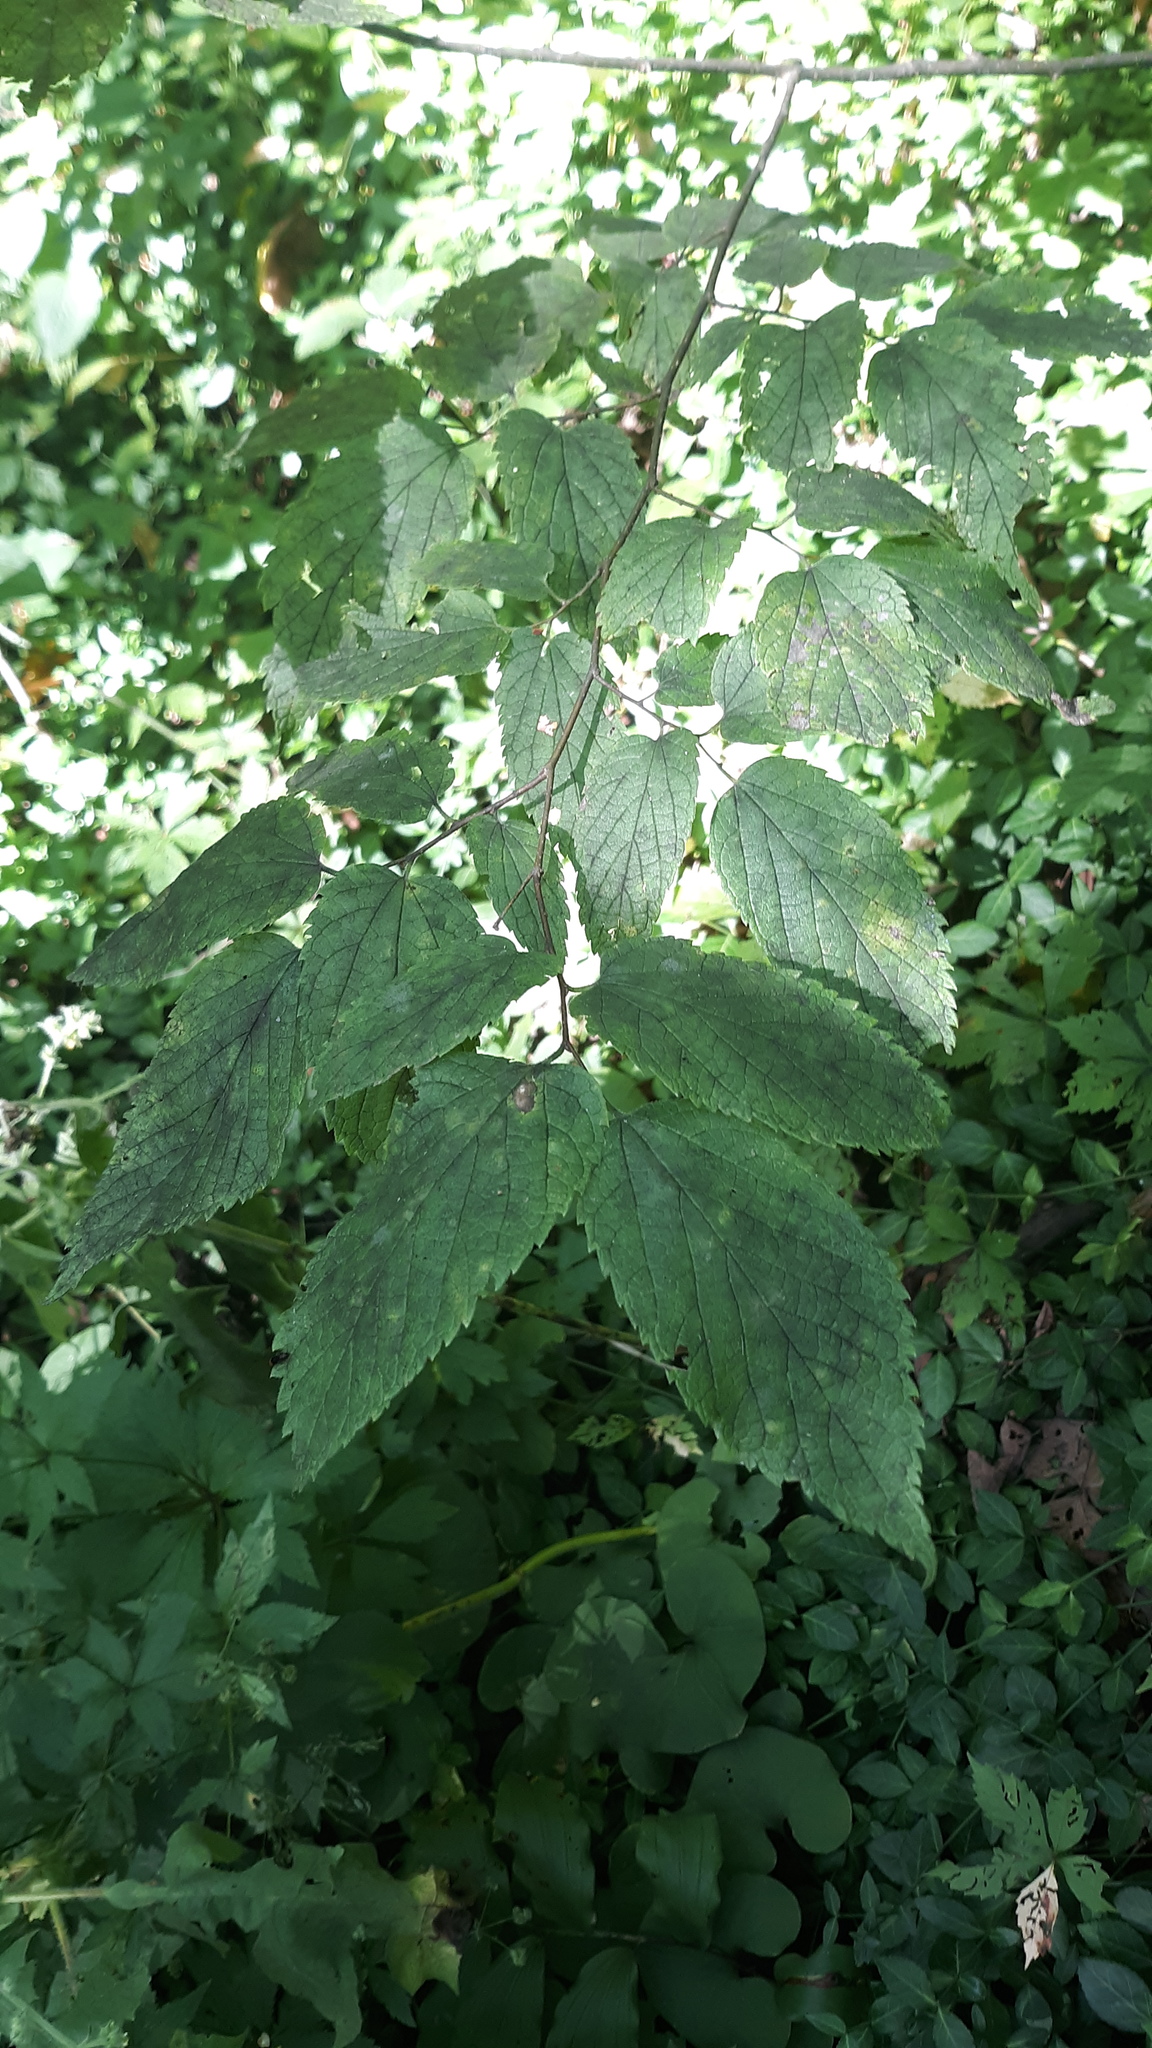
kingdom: Plantae
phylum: Tracheophyta
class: Magnoliopsida
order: Rosales
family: Cannabaceae
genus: Celtis
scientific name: Celtis occidentalis
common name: Common hackberry
